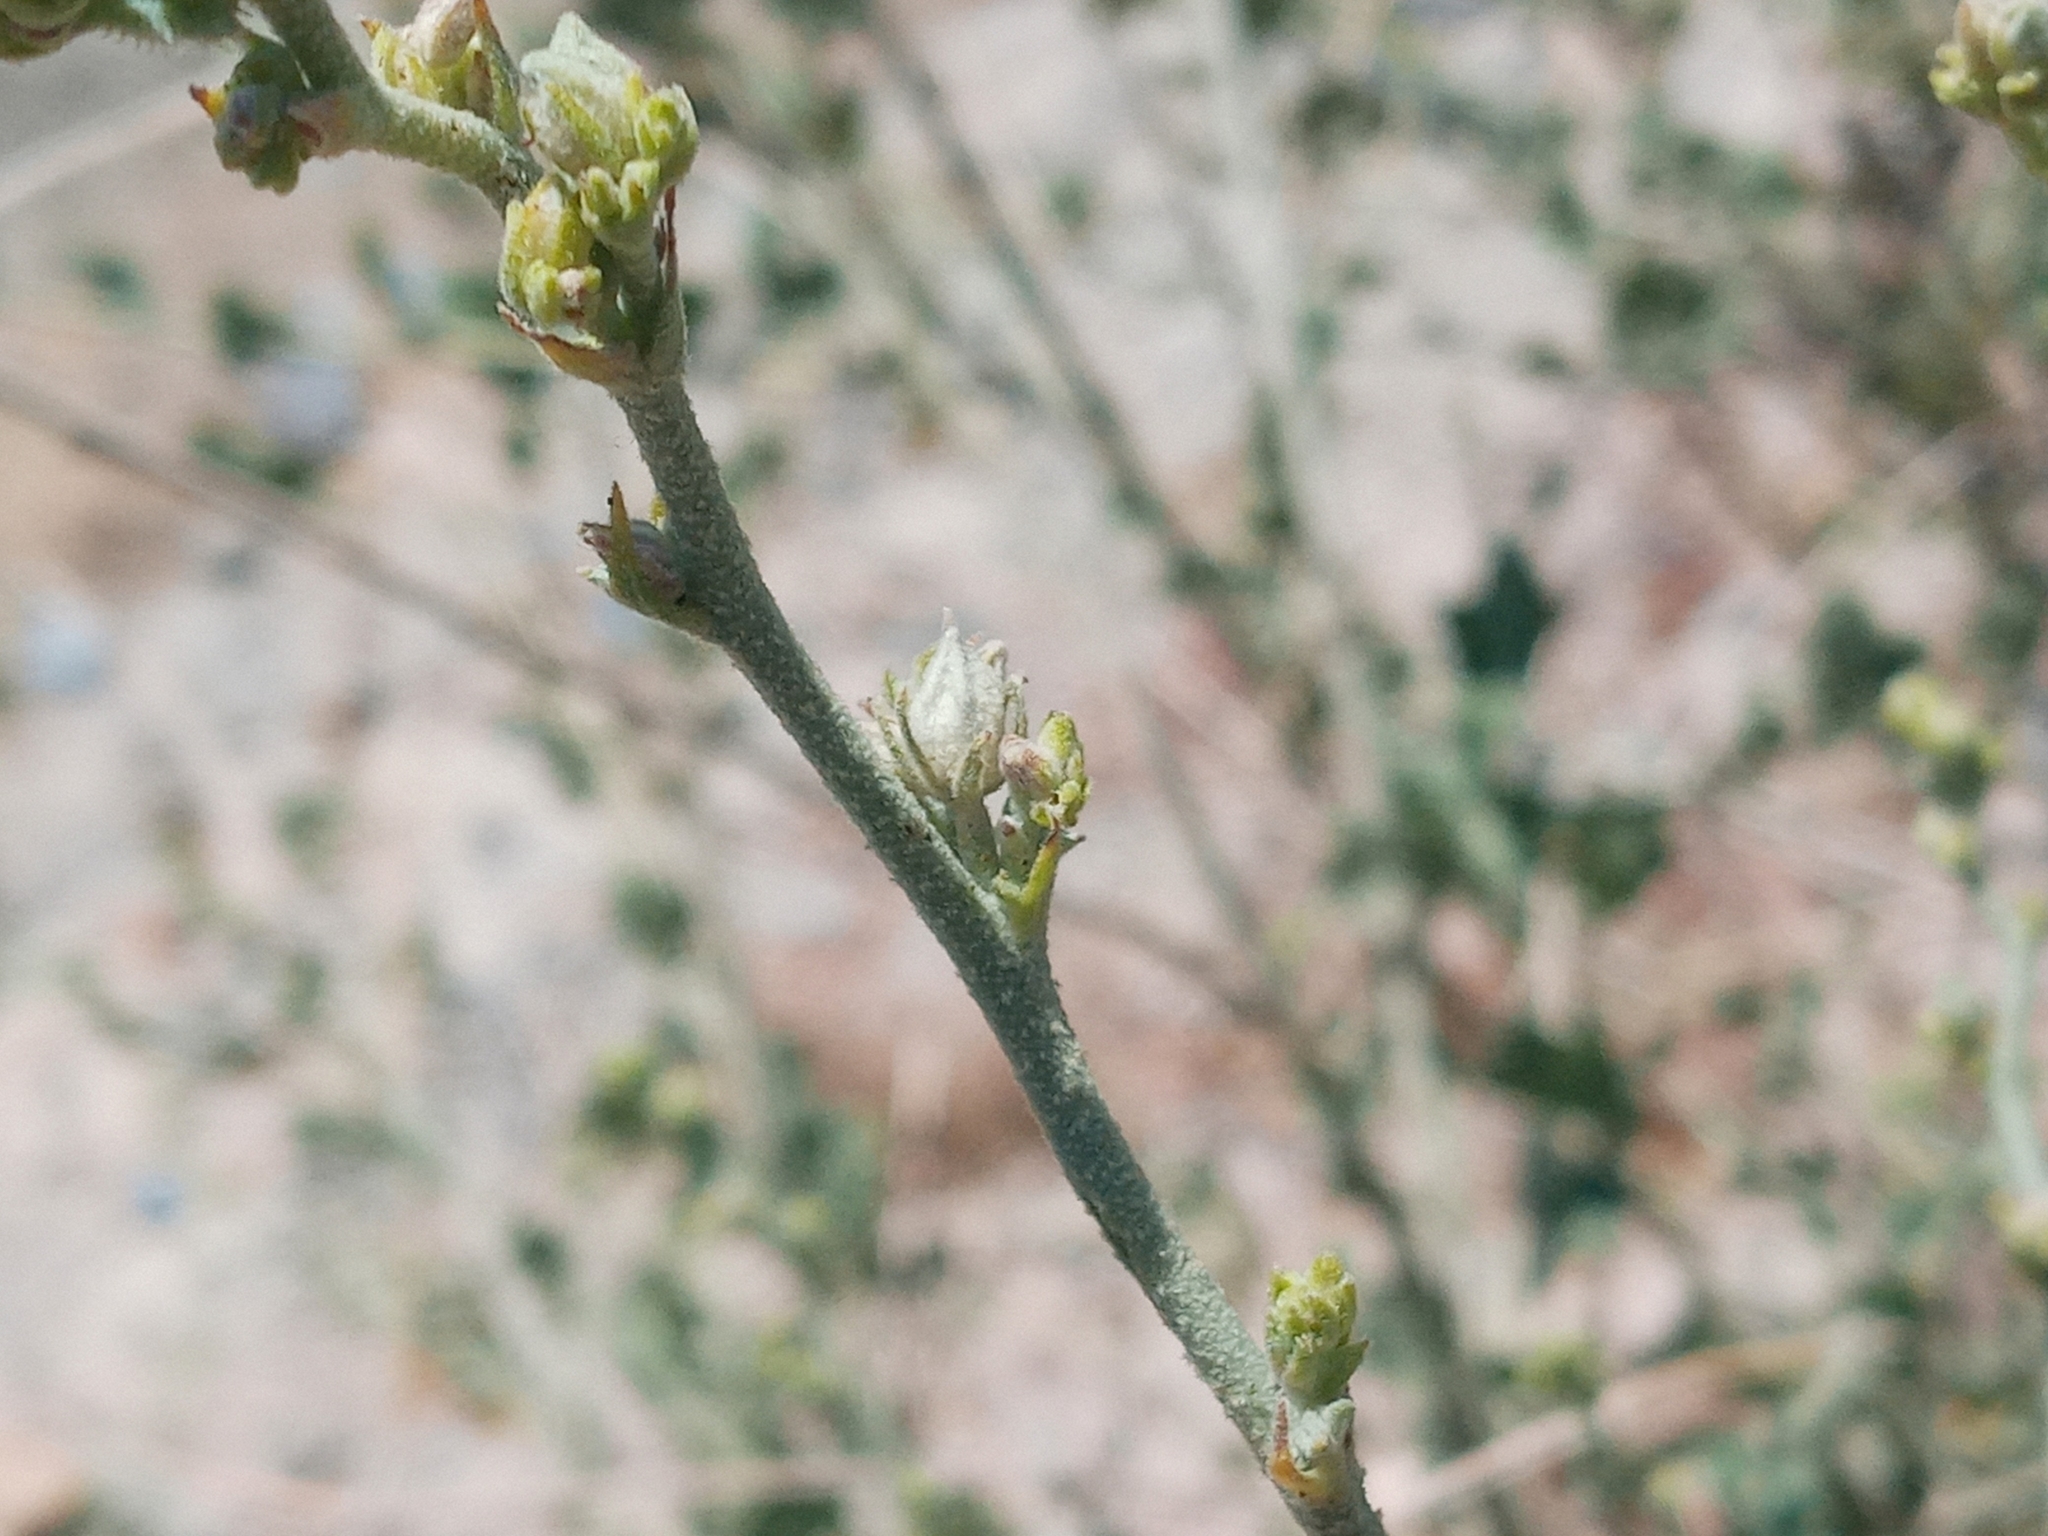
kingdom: Plantae
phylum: Tracheophyta
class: Magnoliopsida
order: Malvales
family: Malvaceae
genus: Malacothamnus
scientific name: Malacothamnus fasciculatus
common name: Sant cruz island bush-mallow
